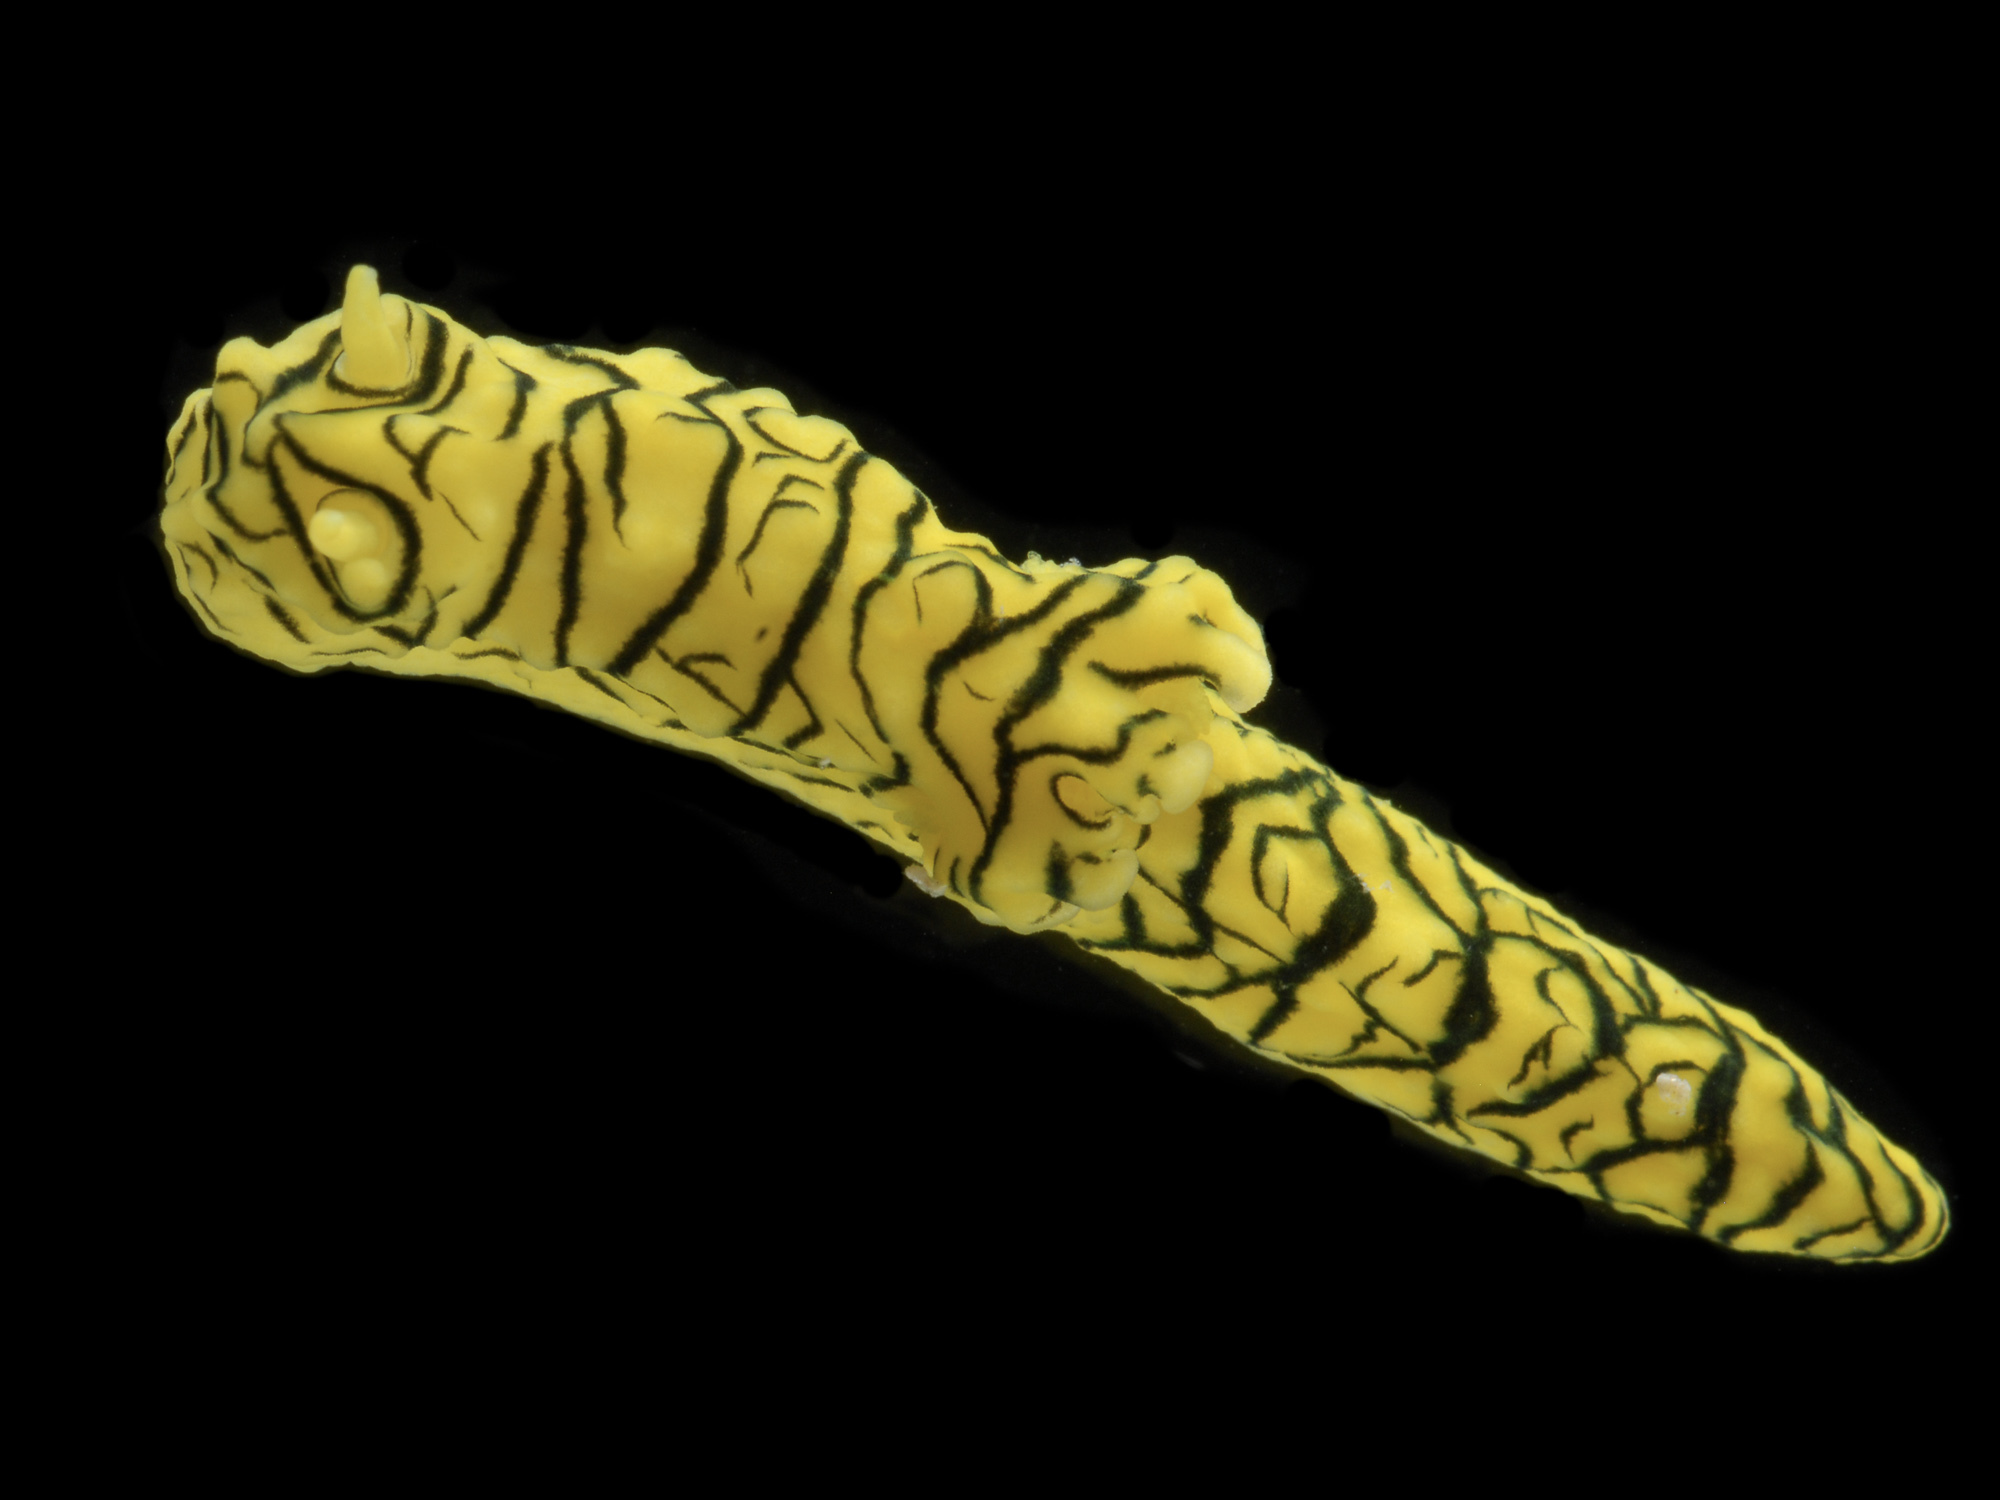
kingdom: Animalia
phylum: Mollusca
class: Gastropoda
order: Nudibranchia
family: Aegiridae
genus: Notodoris
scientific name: Notodoris minor
